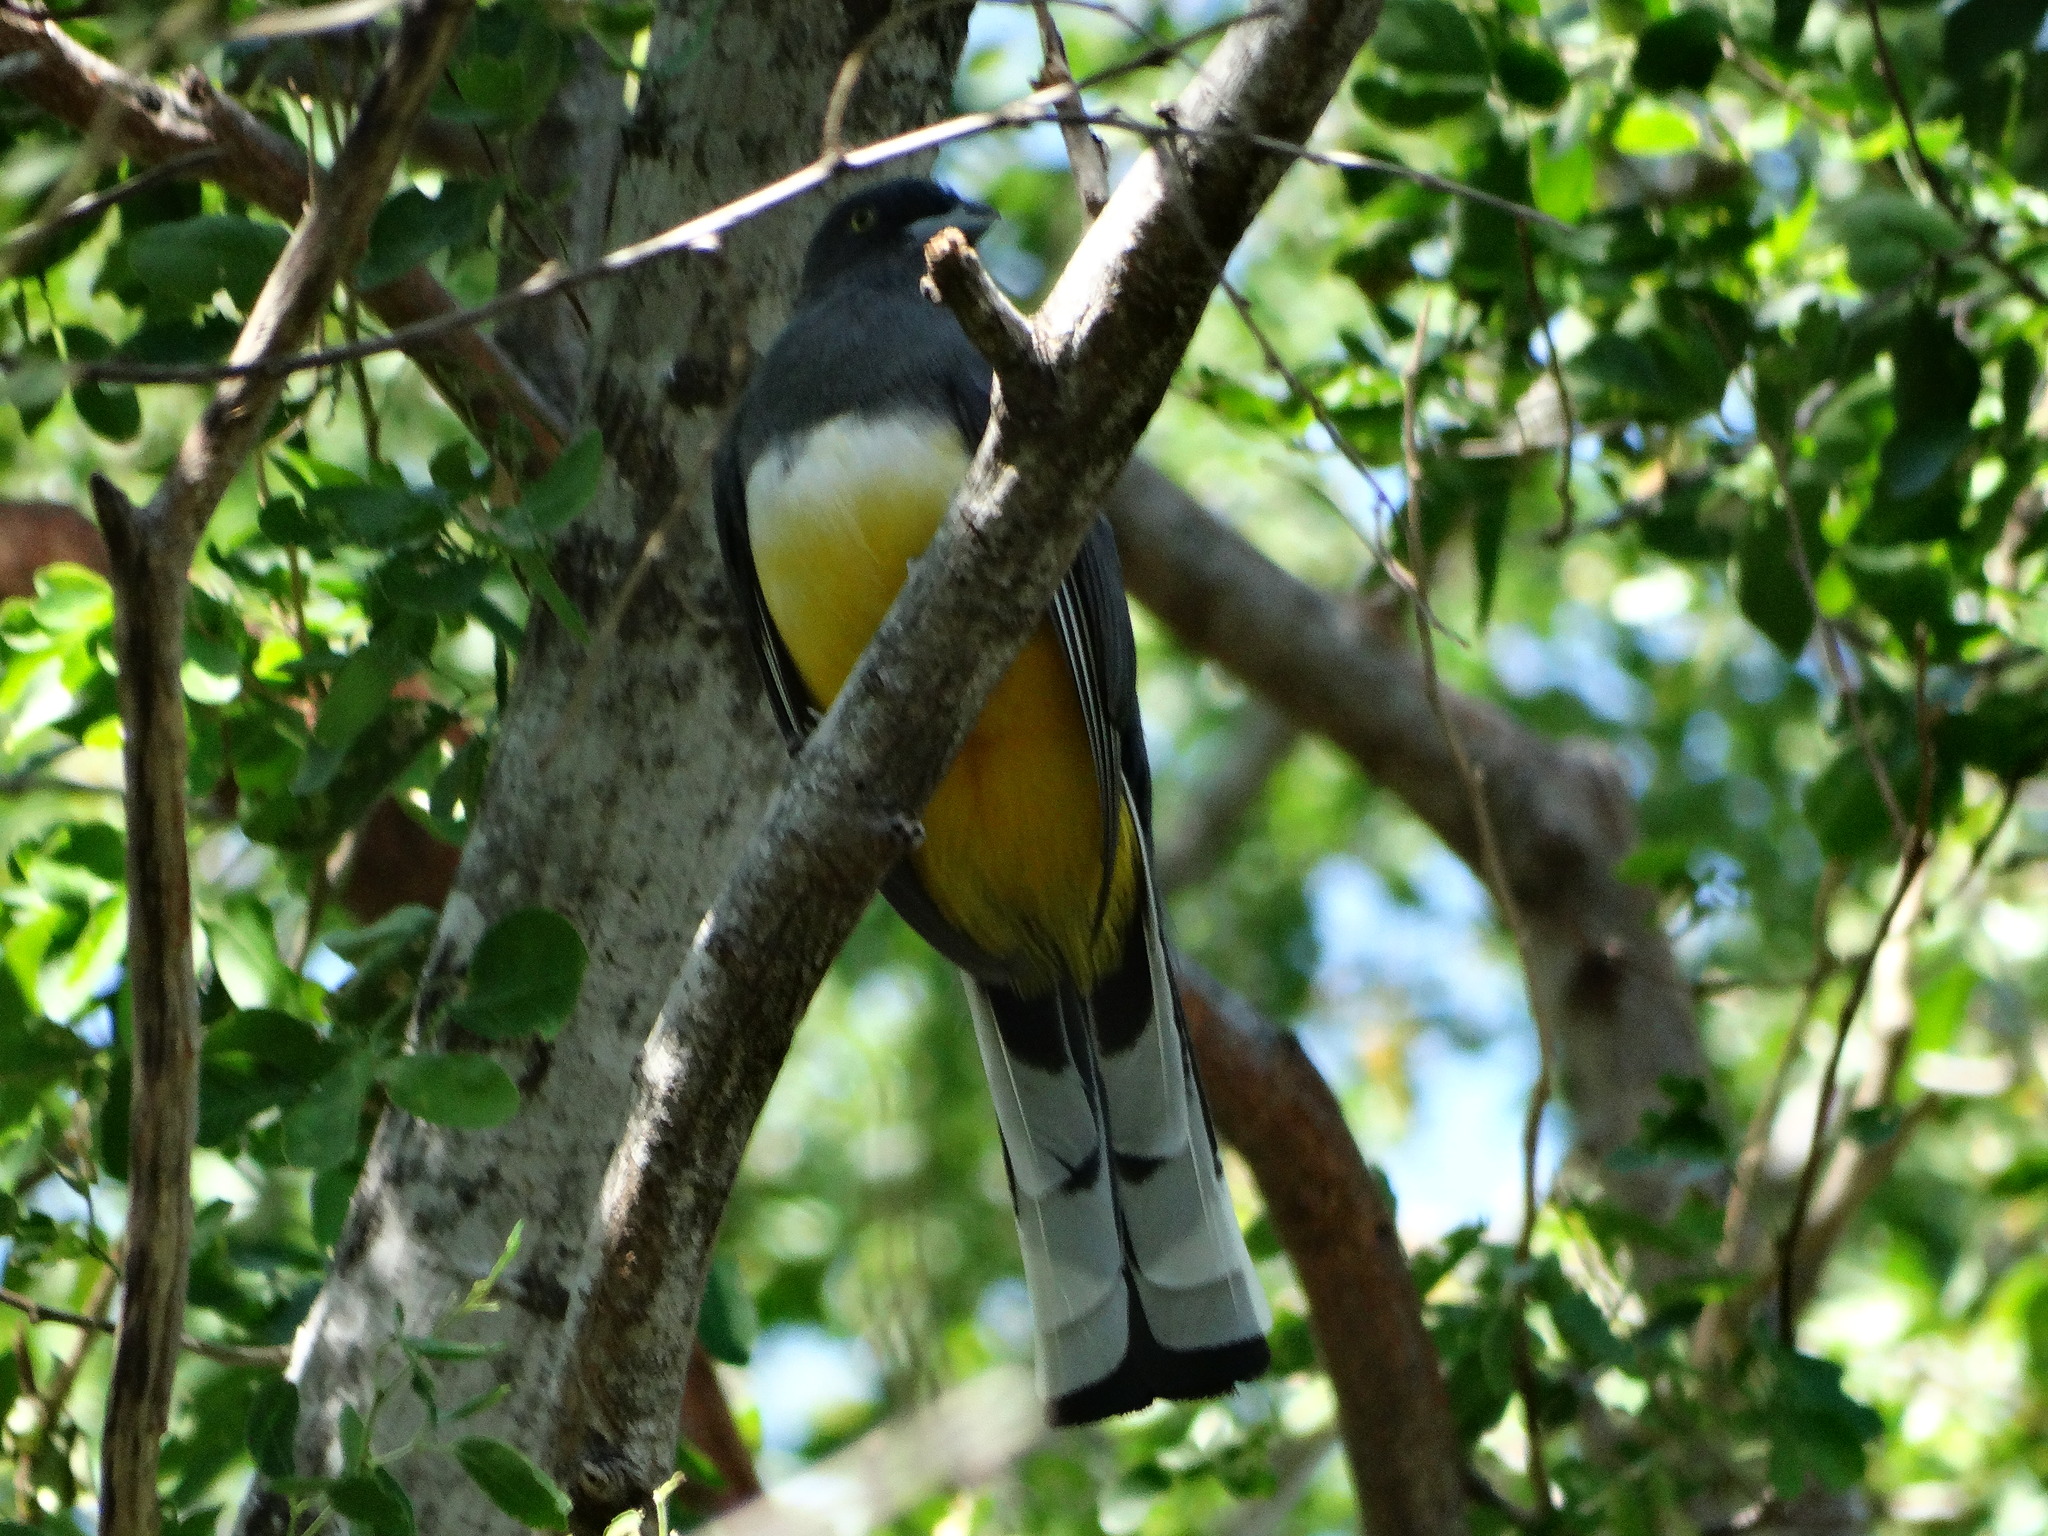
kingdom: Animalia
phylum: Chordata
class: Aves
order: Trogoniformes
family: Trogonidae
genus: Trogon
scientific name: Trogon citreolus
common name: Citreoline trogon
